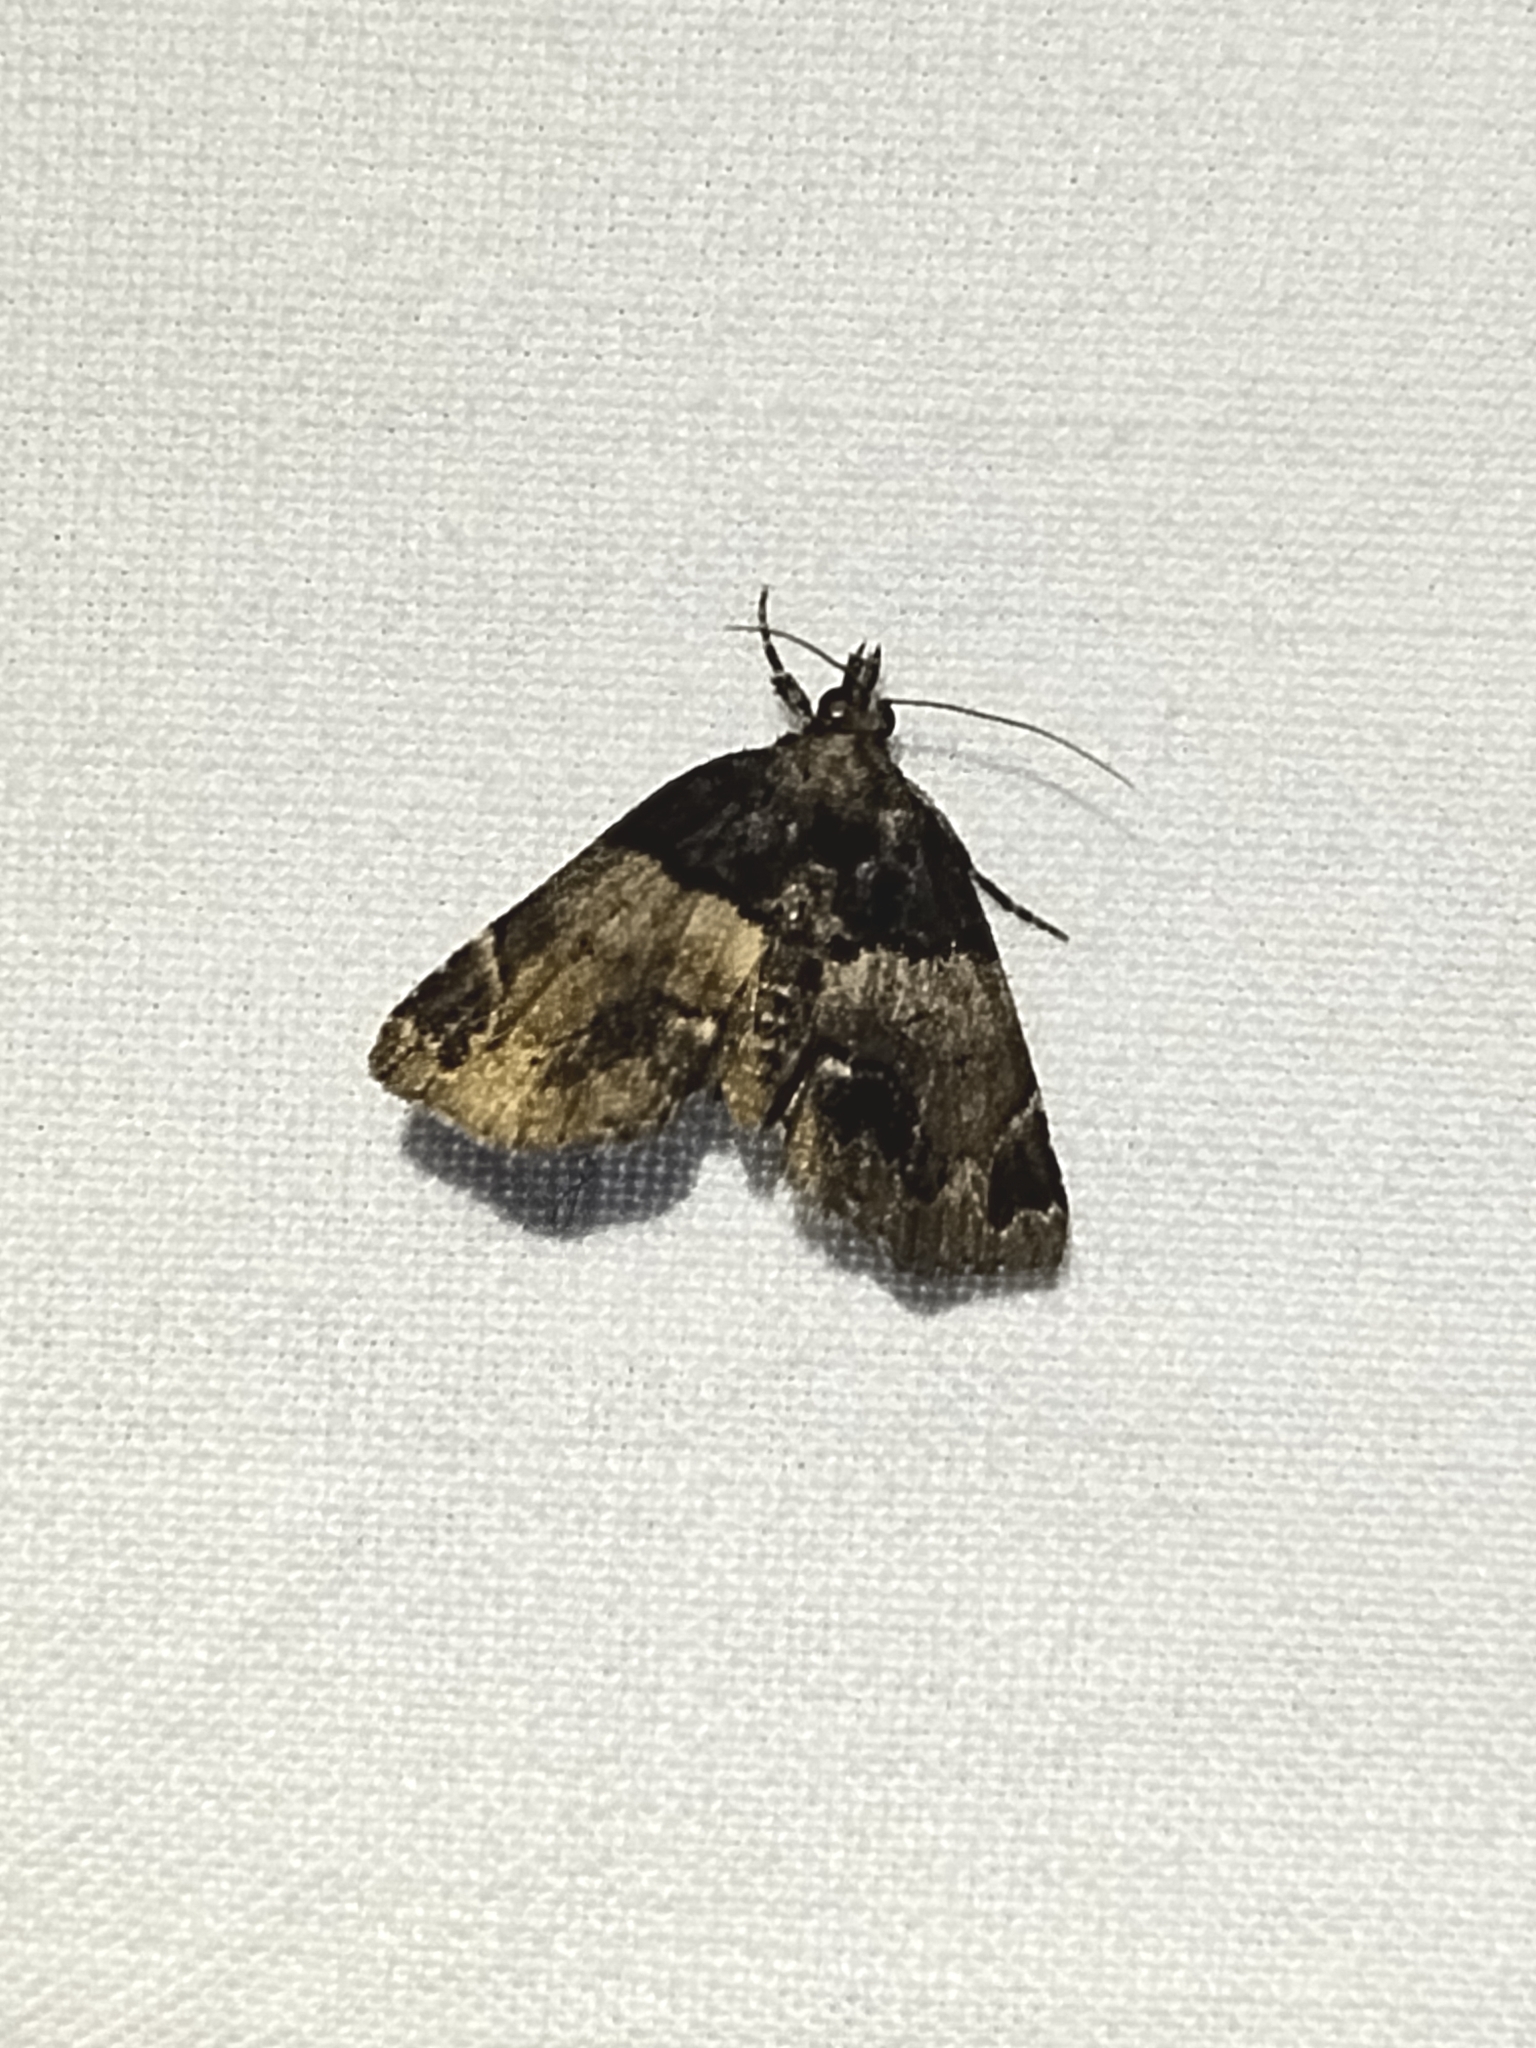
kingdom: Animalia
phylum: Arthropoda
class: Insecta
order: Lepidoptera
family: Erebidae
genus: Cutina
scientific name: Cutina distincta
